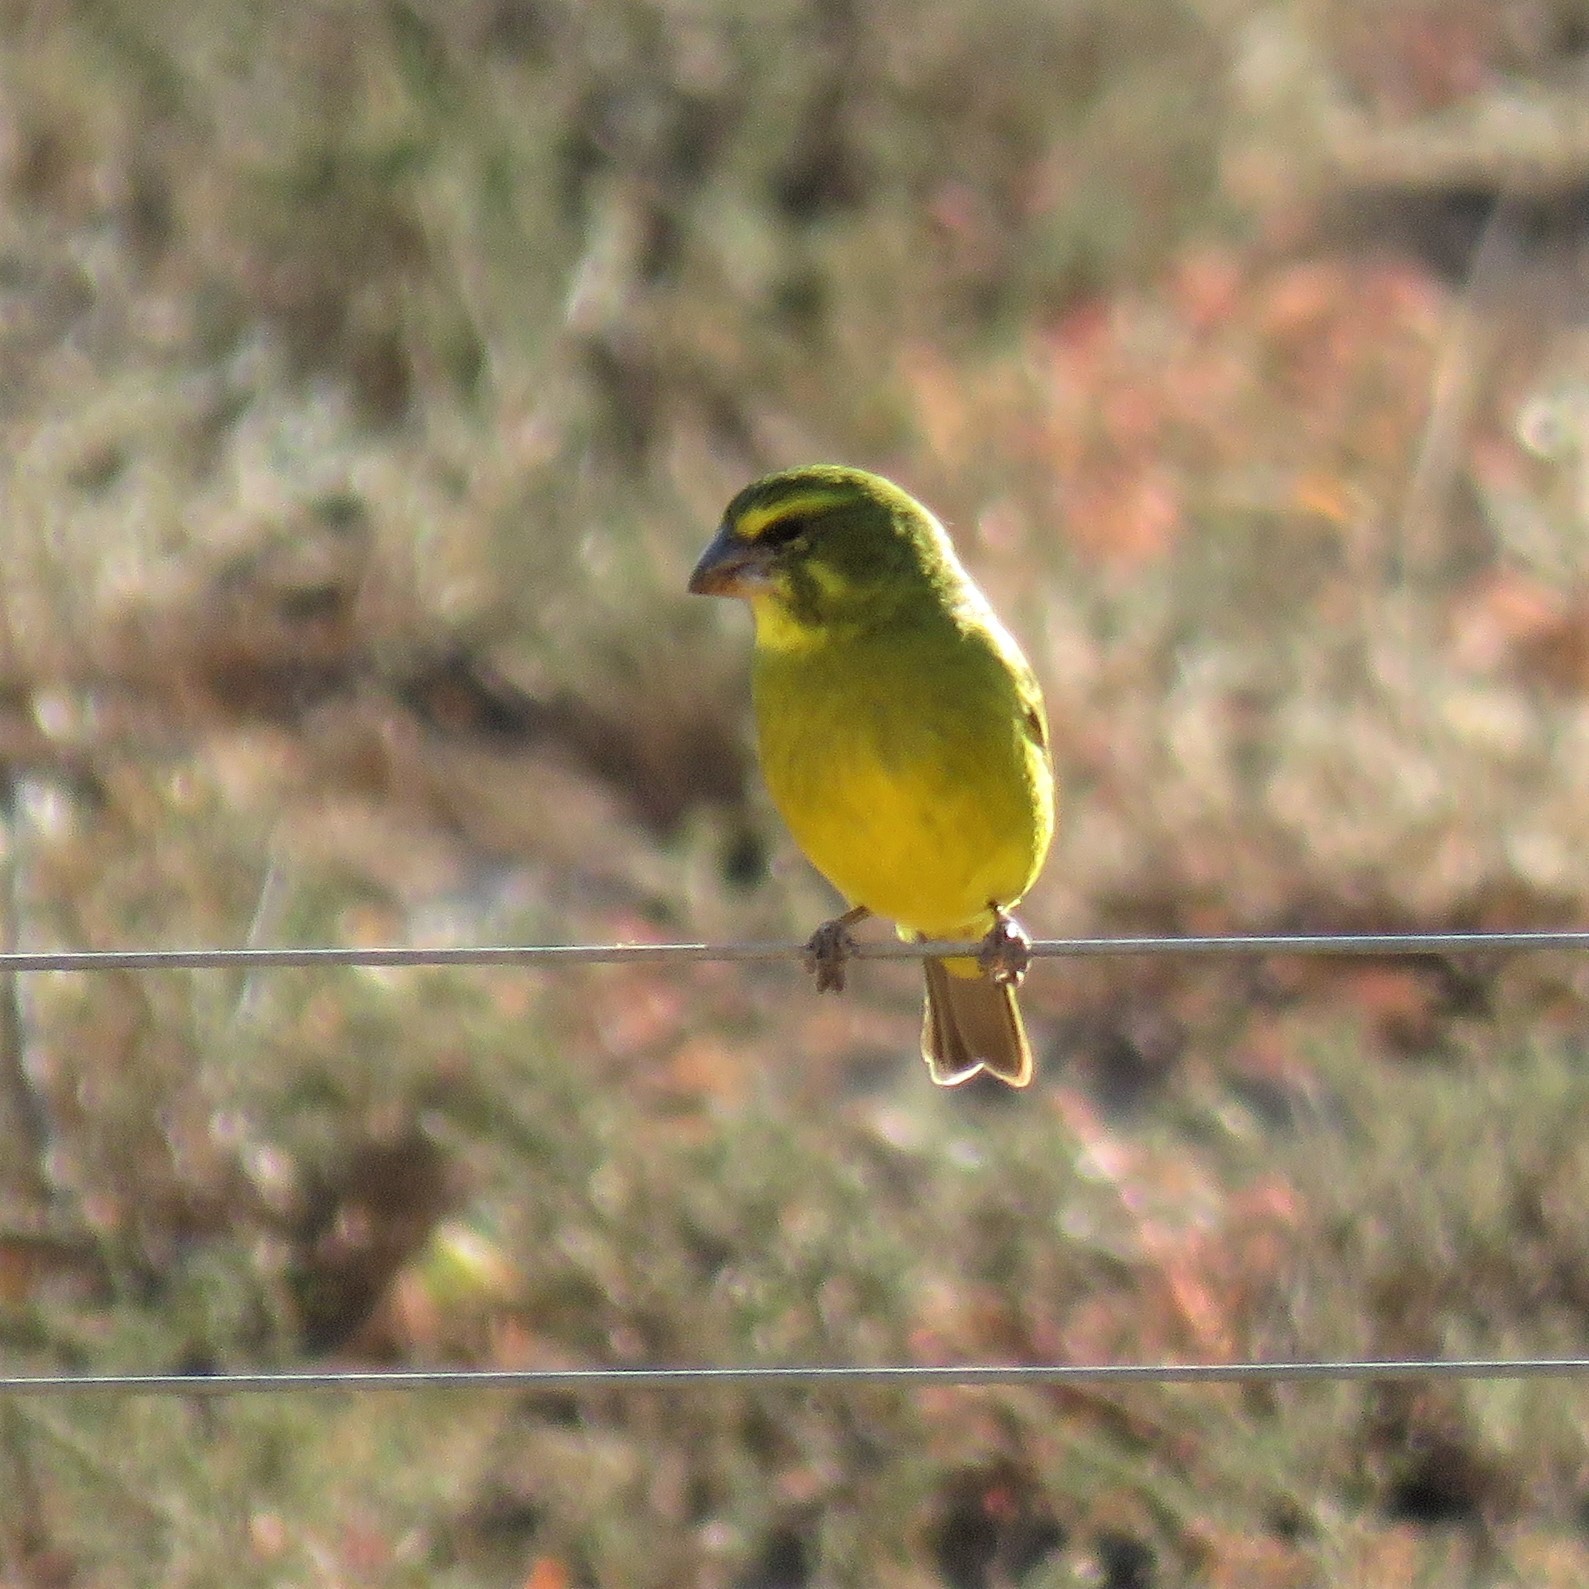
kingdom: Animalia
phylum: Chordata
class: Aves
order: Passeriformes
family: Fringillidae
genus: Crithagra
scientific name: Crithagra sulphurata
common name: Brimstone canary
